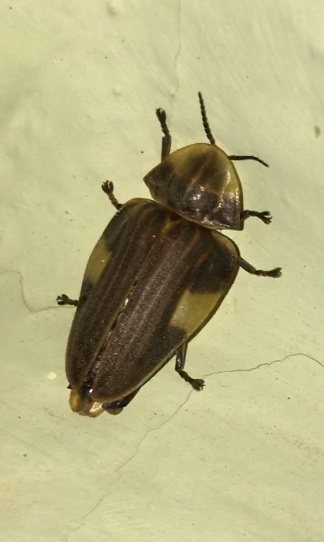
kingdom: Animalia
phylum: Arthropoda
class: Insecta
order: Coleoptera
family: Lampyridae
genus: Aspisoma
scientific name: Aspisoma sticticum
